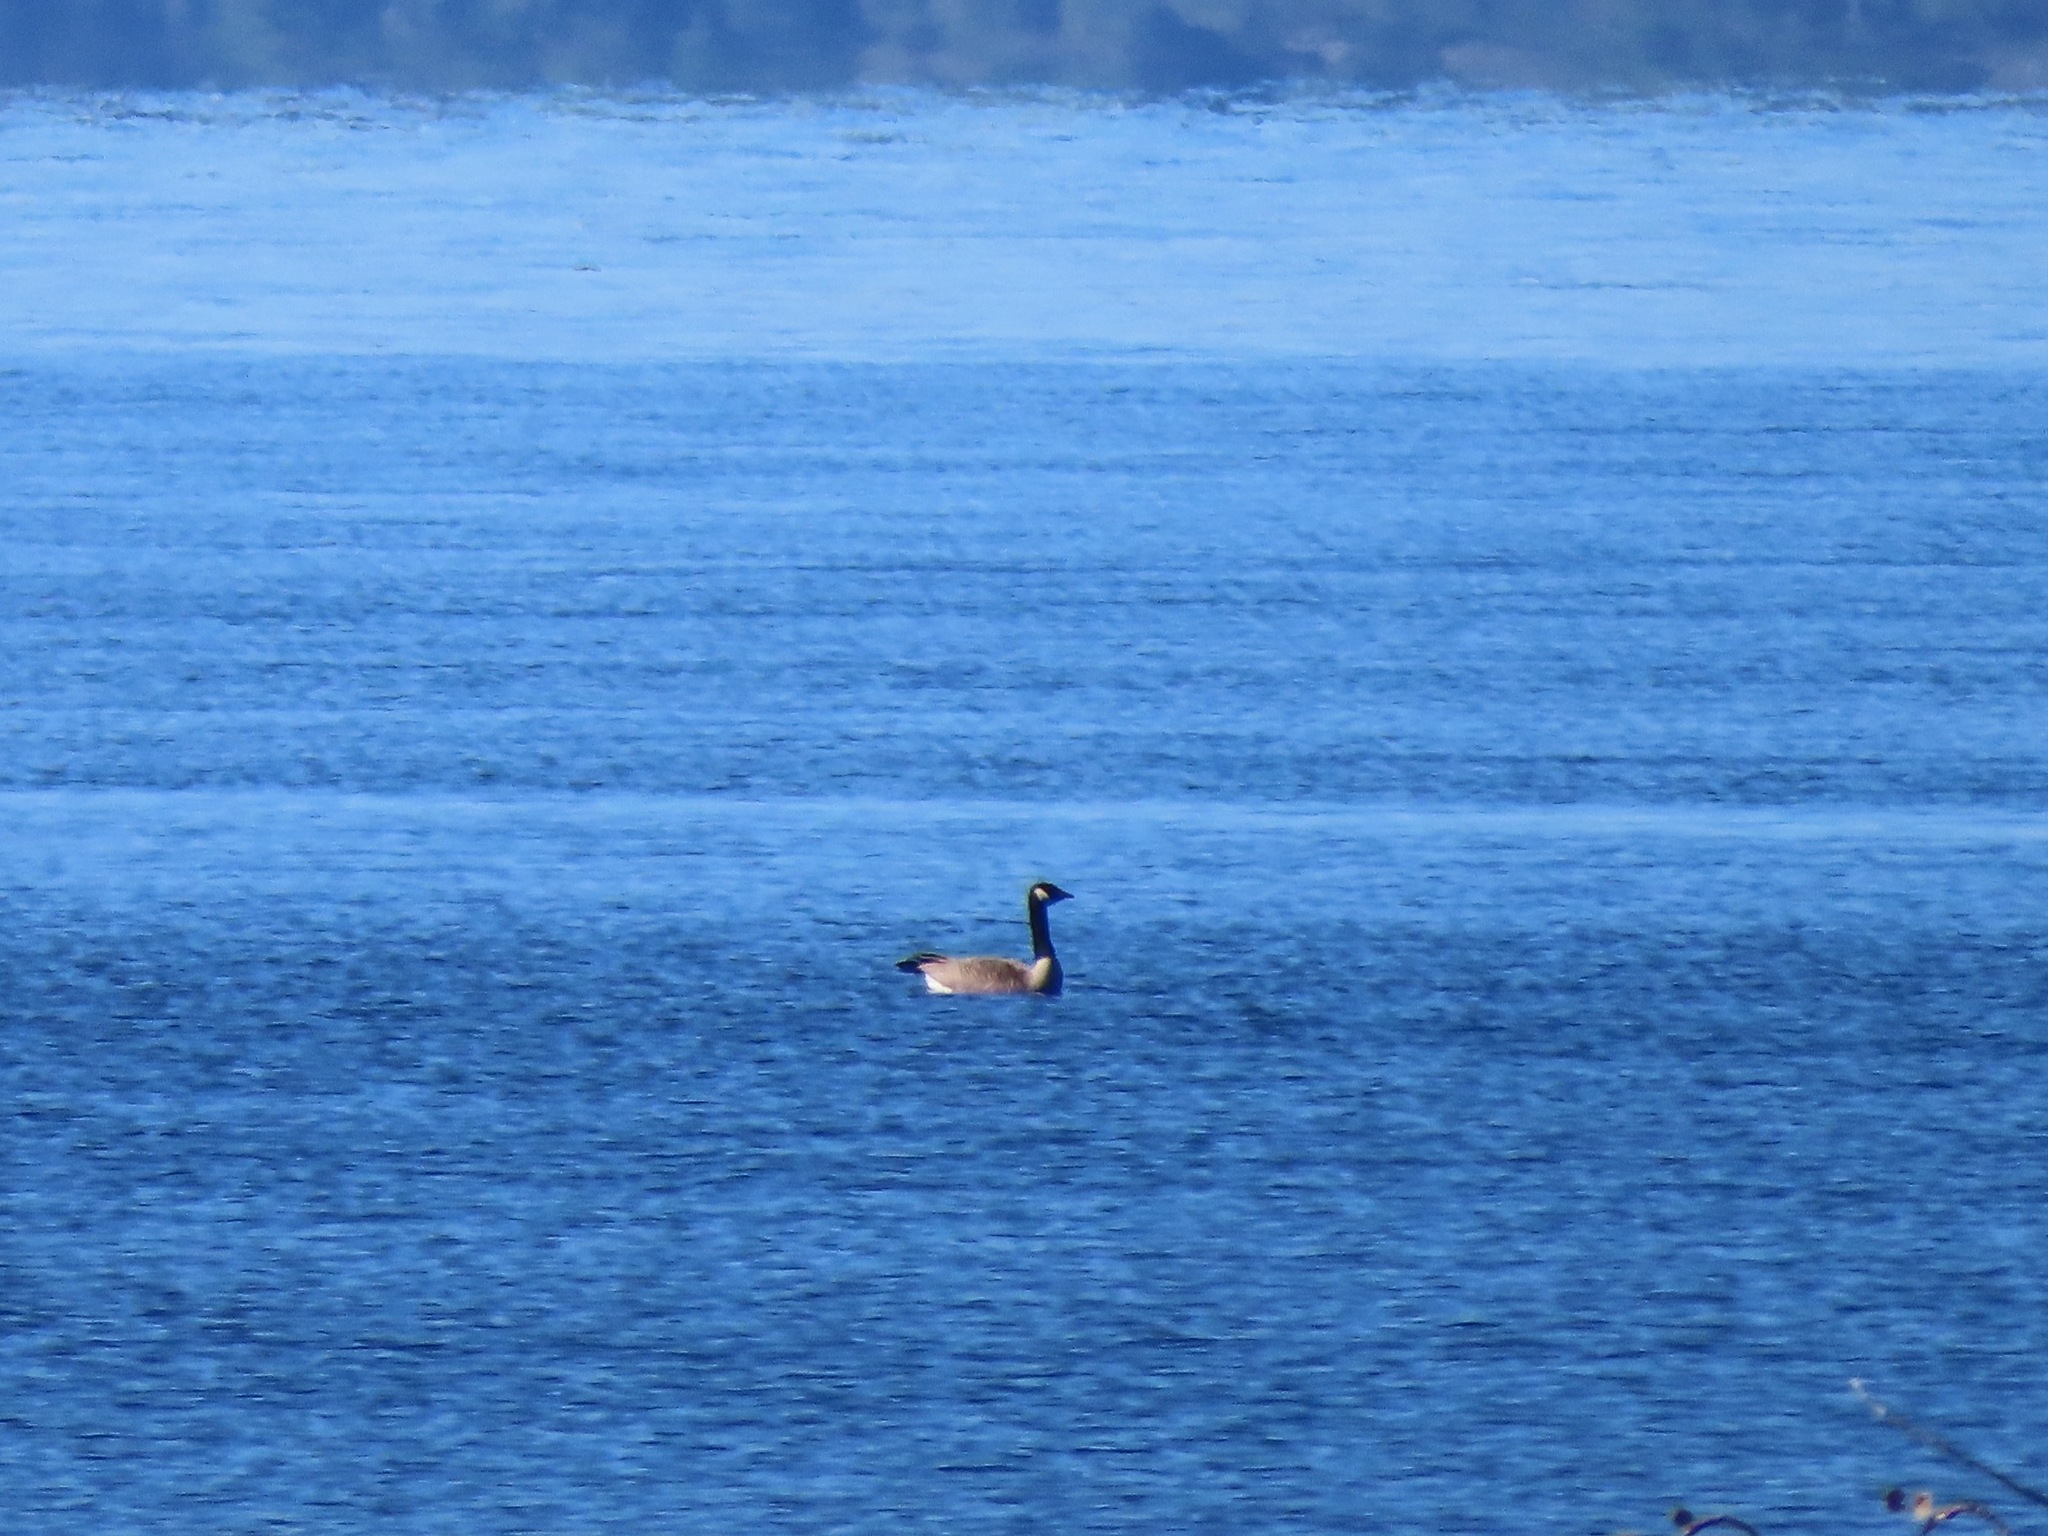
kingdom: Animalia
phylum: Chordata
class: Aves
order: Anseriformes
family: Anatidae
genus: Branta
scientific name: Branta canadensis
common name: Canada goose
